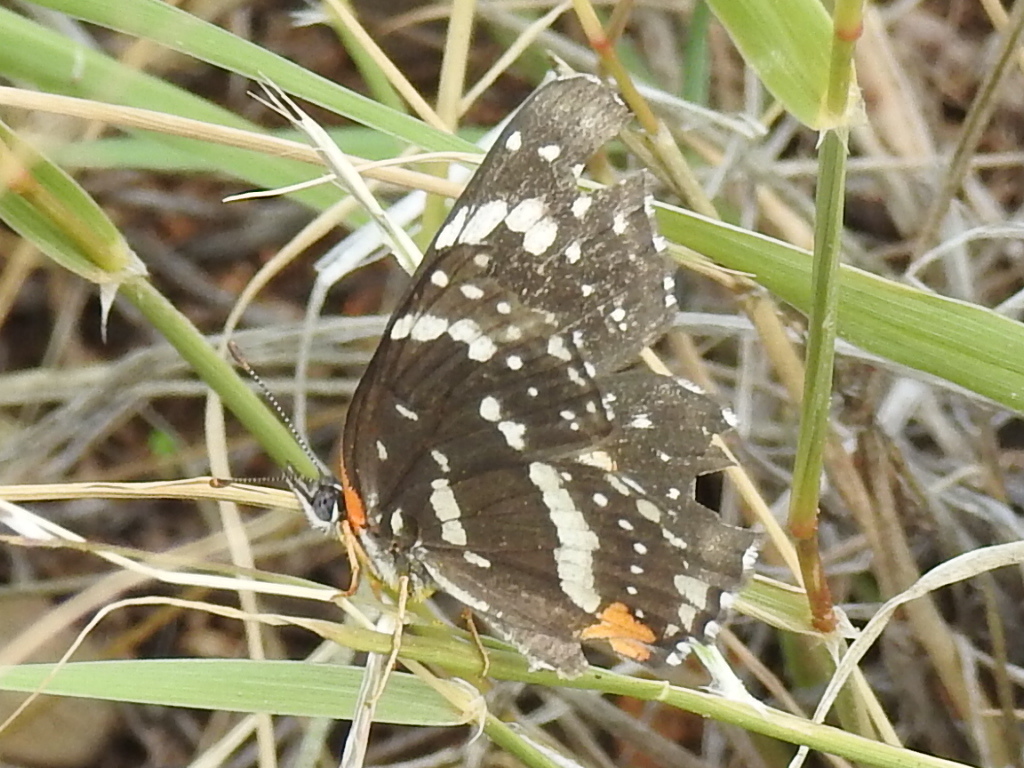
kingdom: Animalia
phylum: Arthropoda
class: Insecta
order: Lepidoptera
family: Nymphalidae
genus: Chlosyne
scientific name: Chlosyne lacinia
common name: Bordered patch
